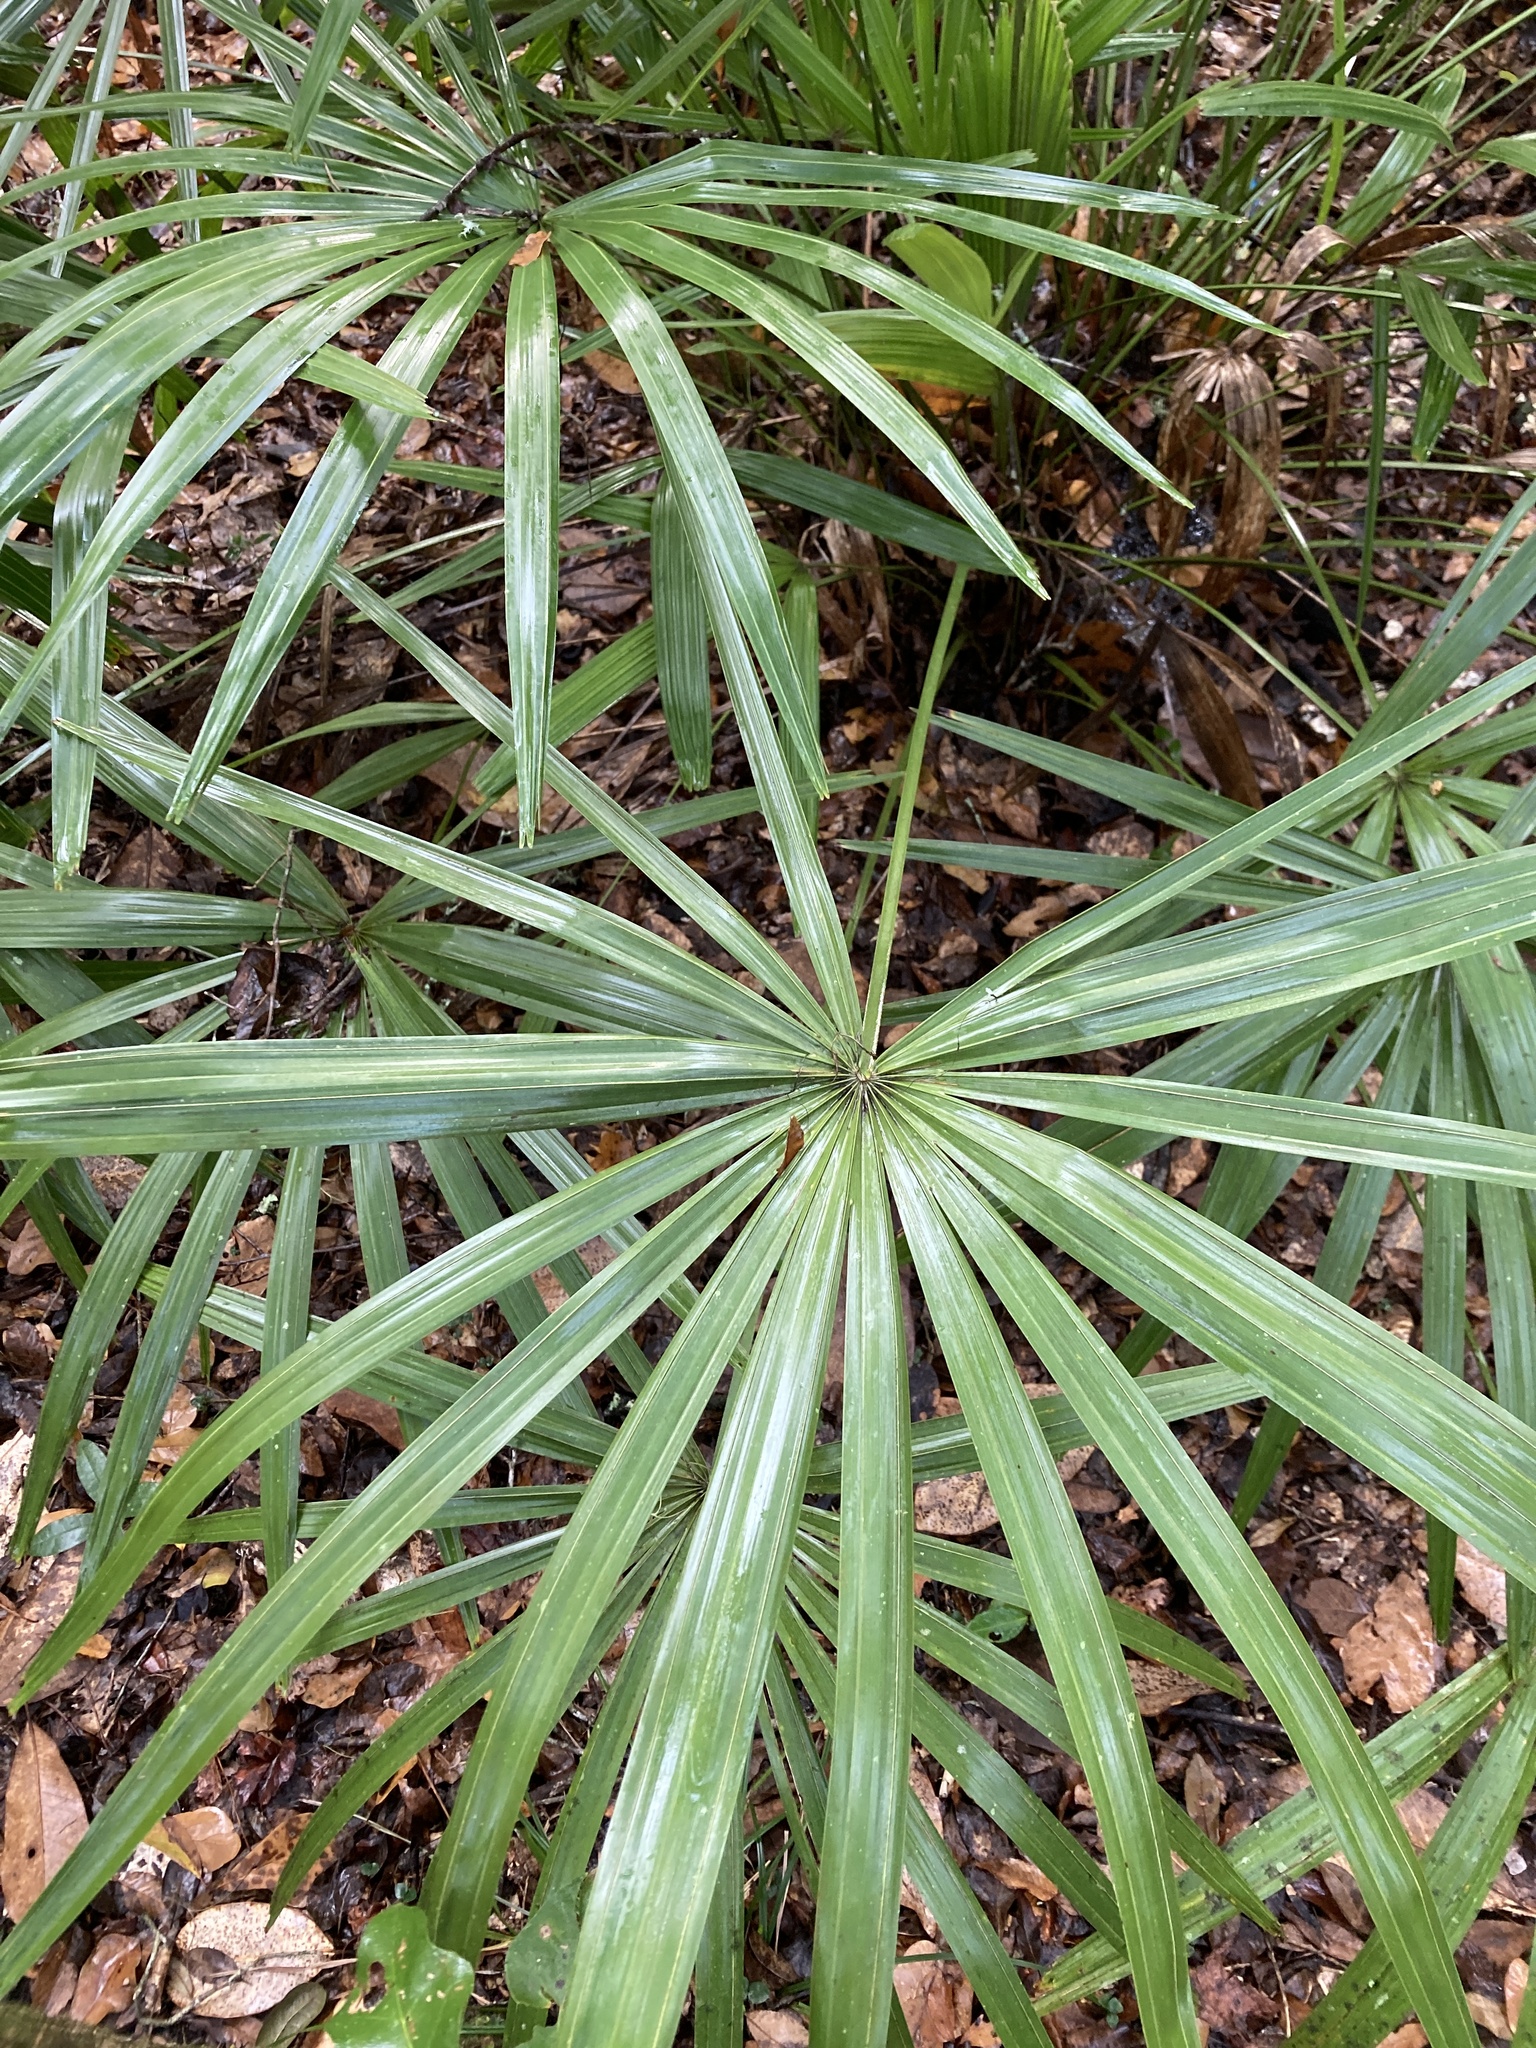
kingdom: Plantae
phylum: Tracheophyta
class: Liliopsida
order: Arecales
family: Arecaceae
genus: Rhapidophyllum
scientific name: Rhapidophyllum hystrix
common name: Porcupine palm
